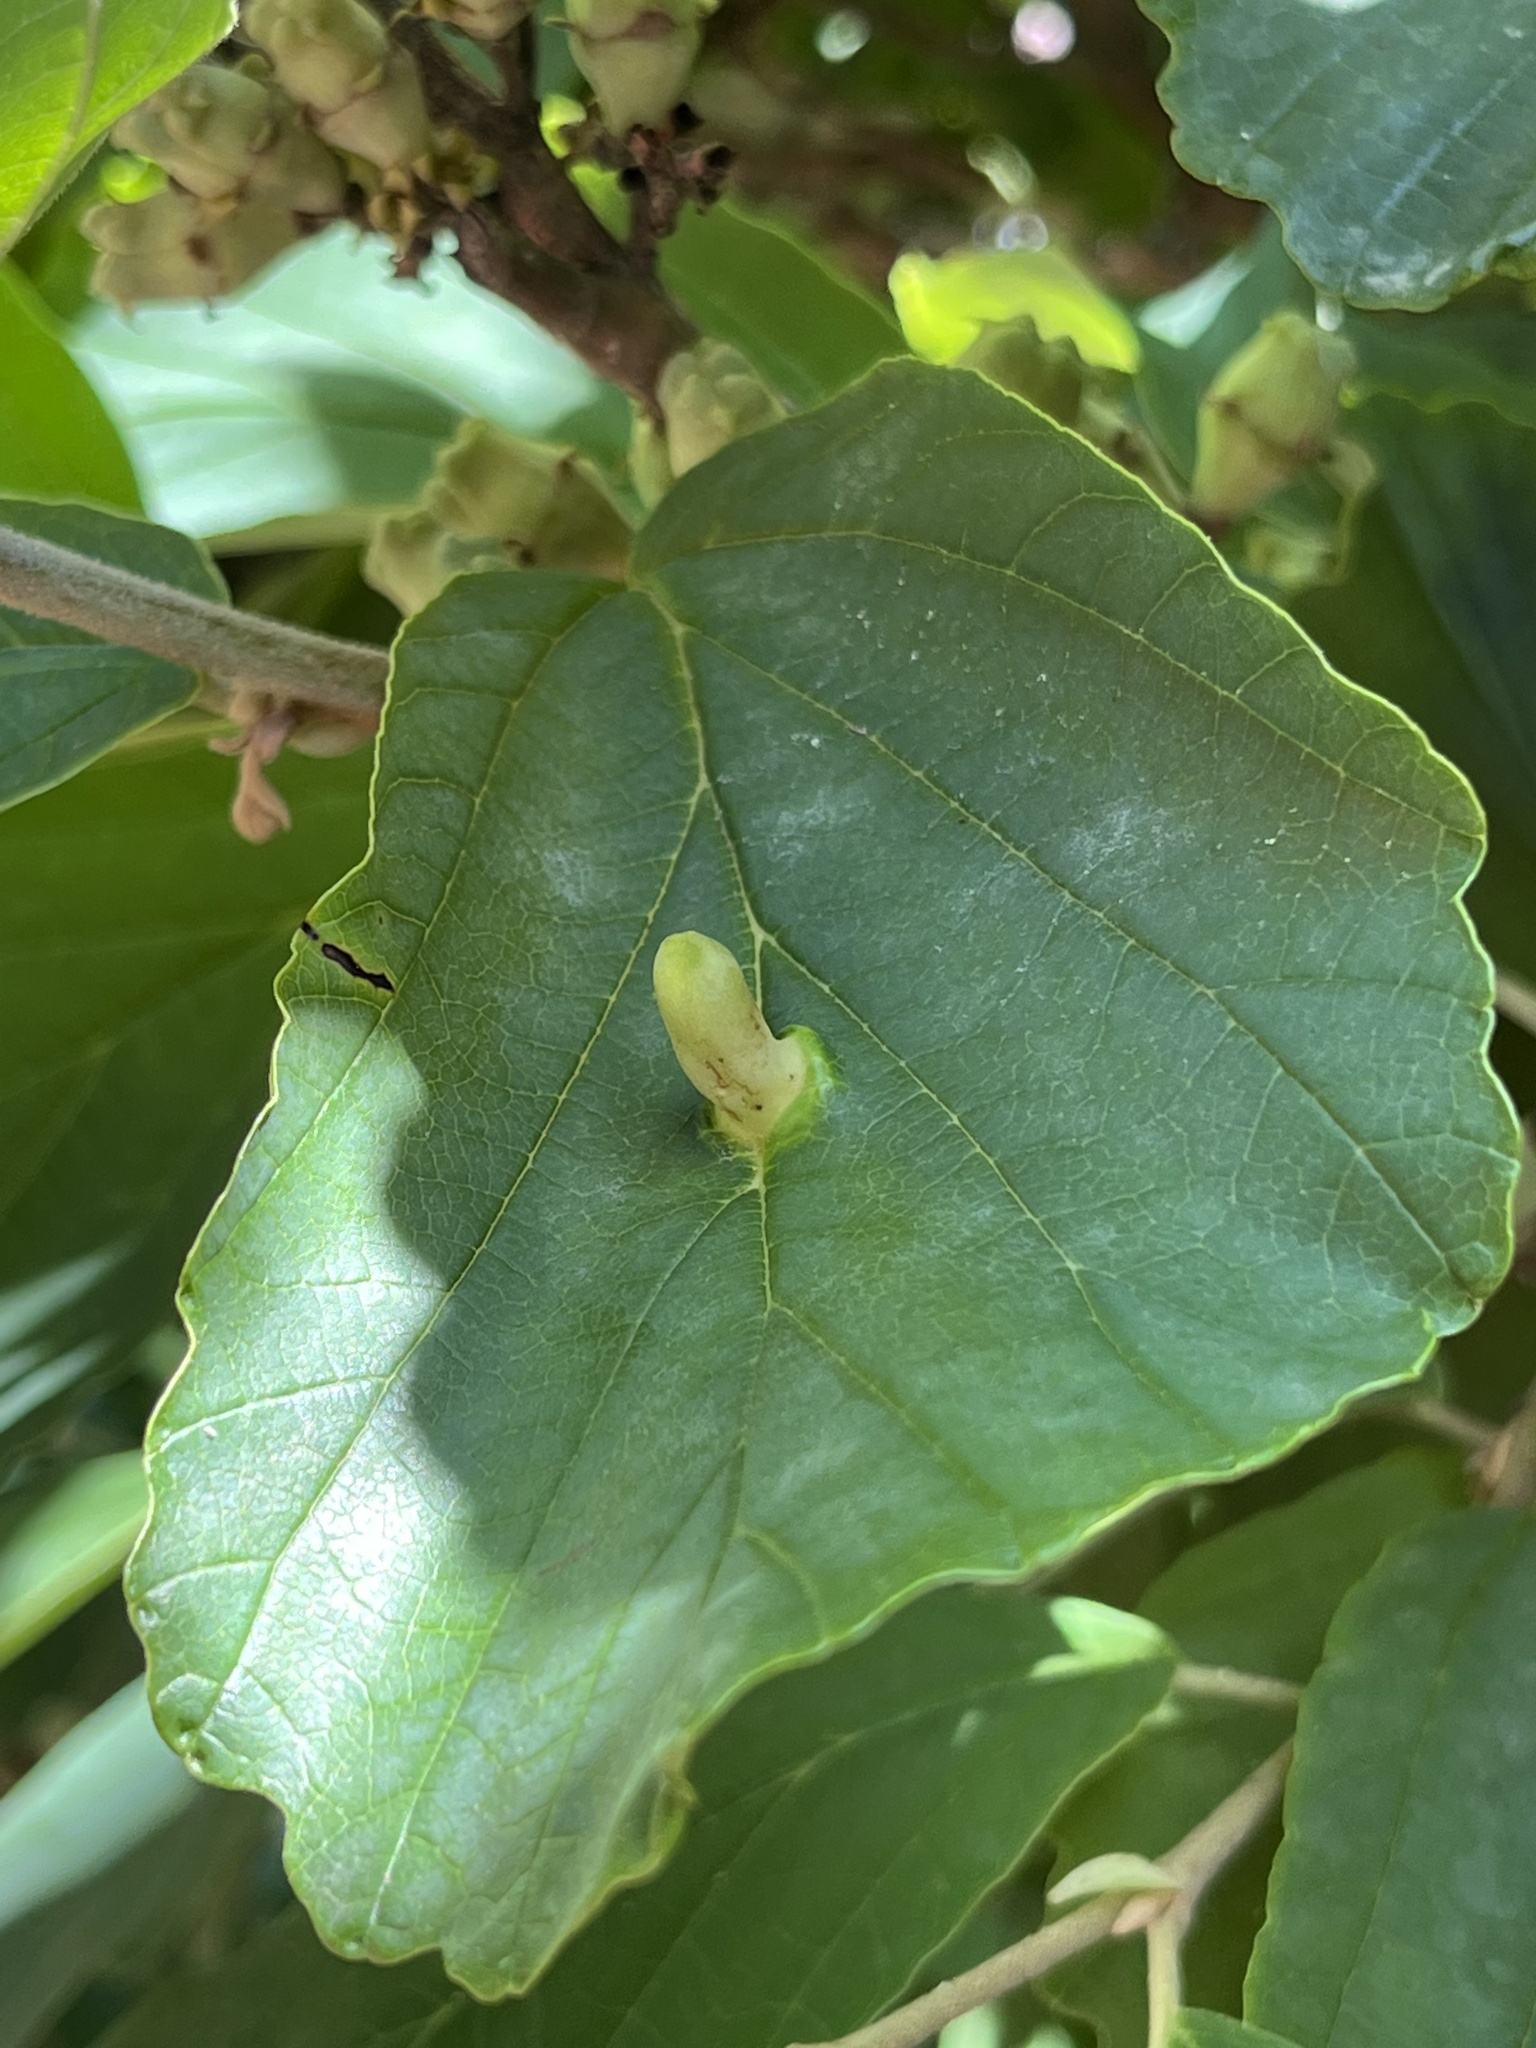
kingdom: Animalia
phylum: Arthropoda
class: Insecta
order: Hemiptera
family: Aphididae
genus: Hormaphis
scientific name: Hormaphis hamamelidis
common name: Witch-hazel cone gall aphid
